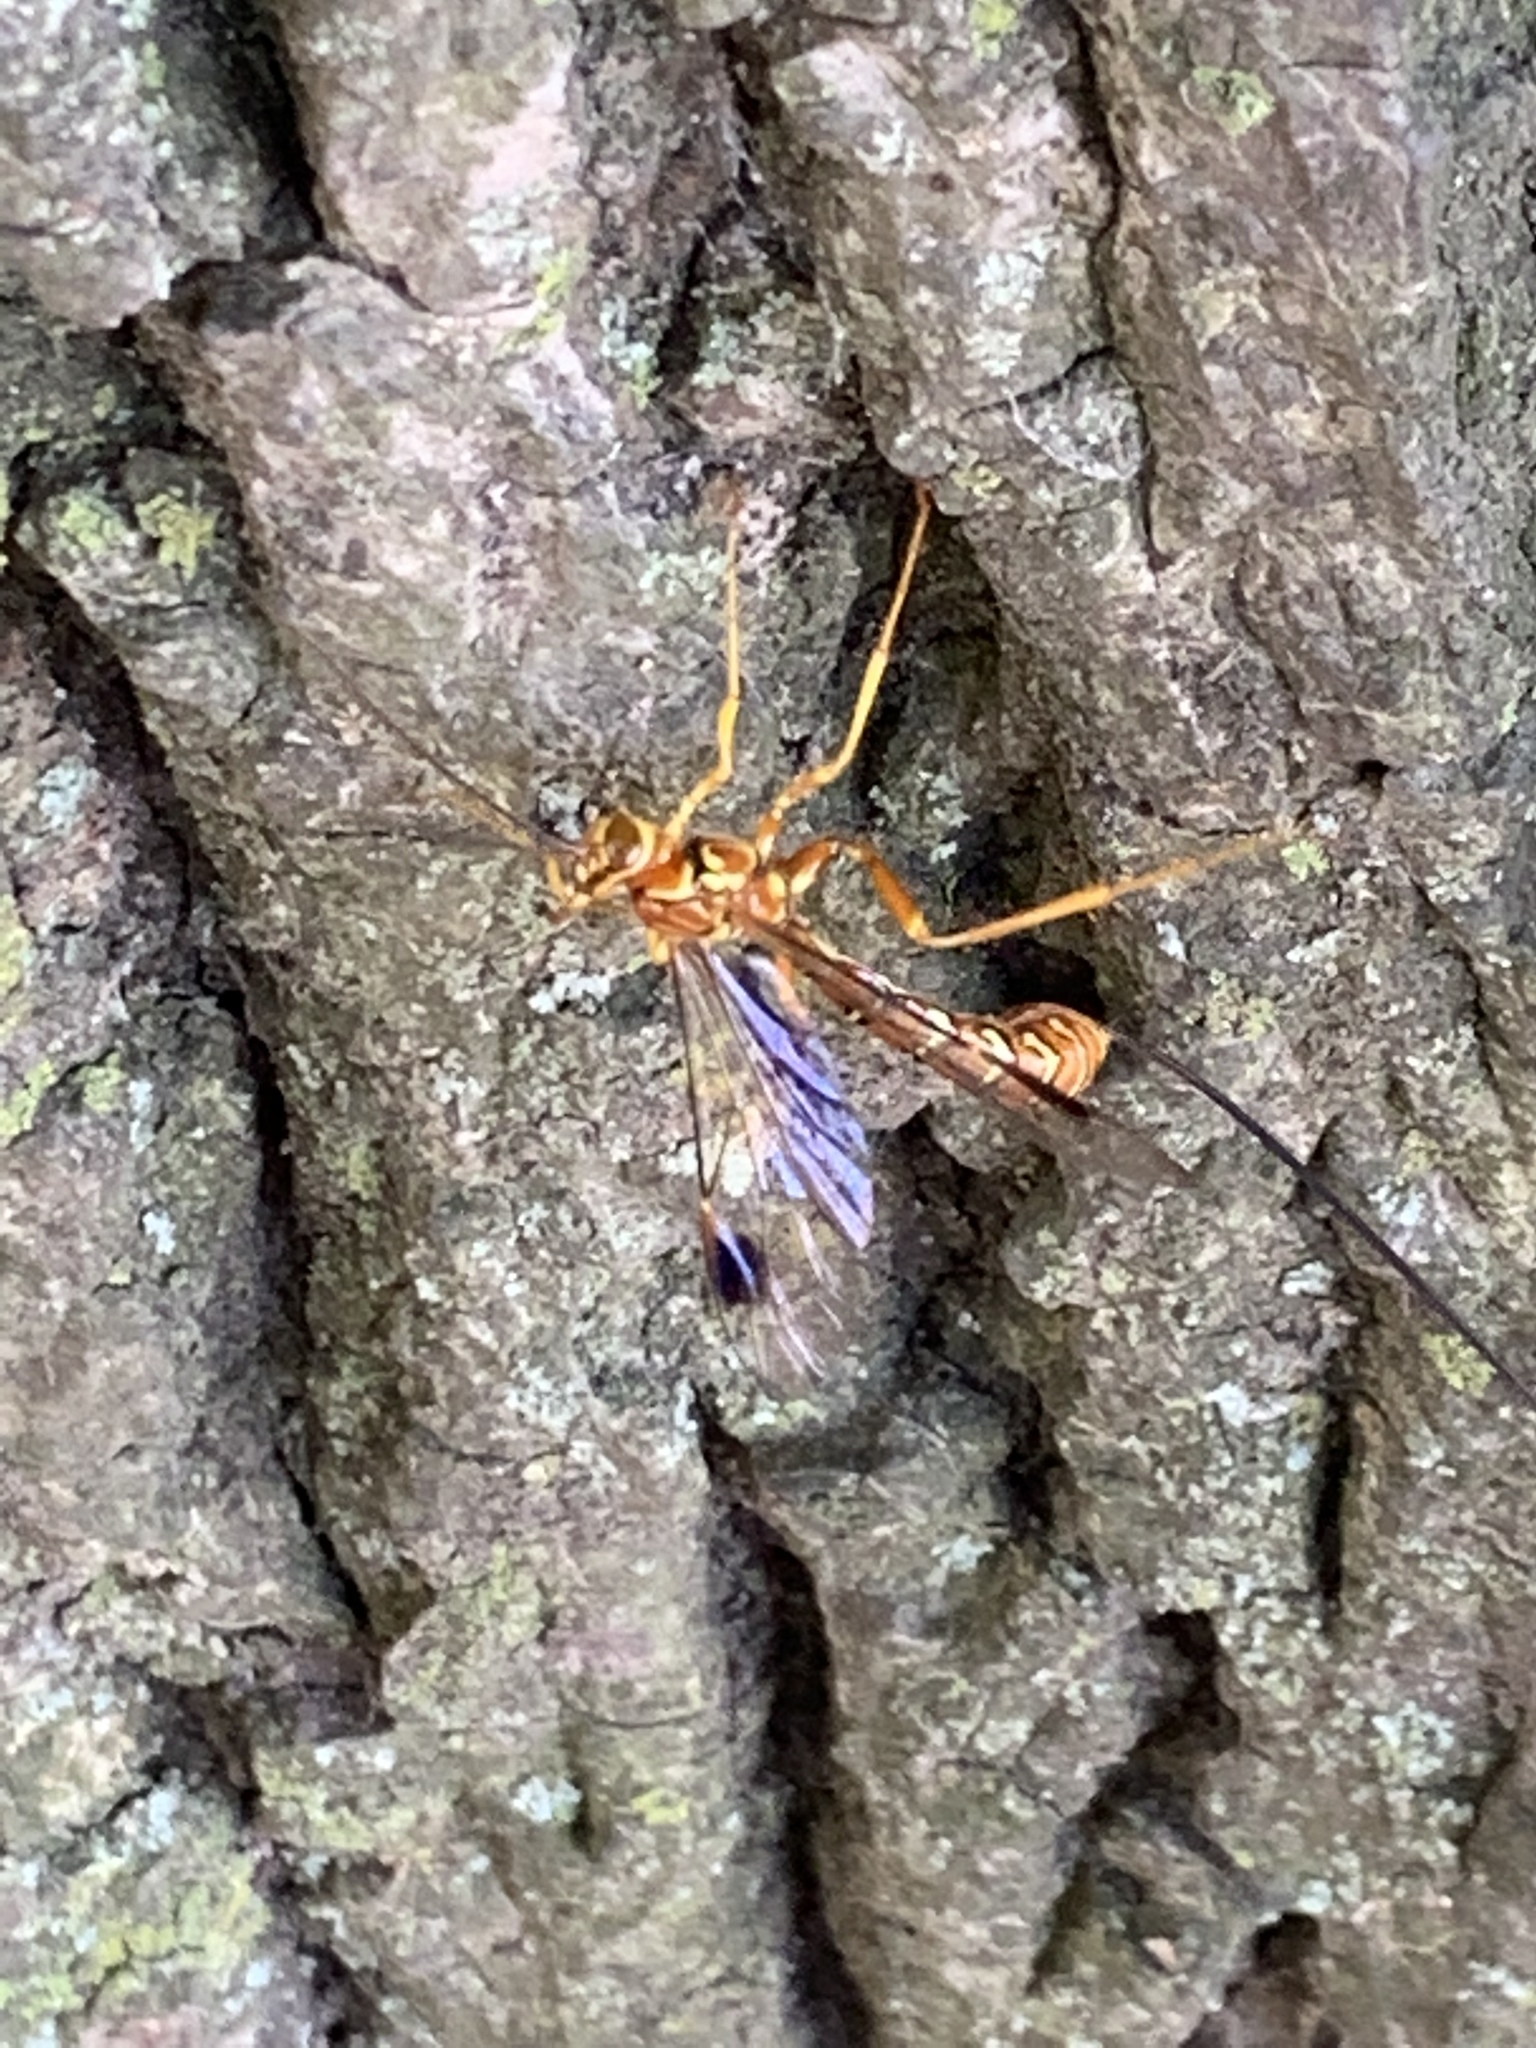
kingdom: Animalia
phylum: Arthropoda
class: Insecta
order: Hymenoptera
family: Ichneumonidae
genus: Megarhyssa
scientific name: Megarhyssa greenei
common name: Greene's giant ichneumonid wasp
